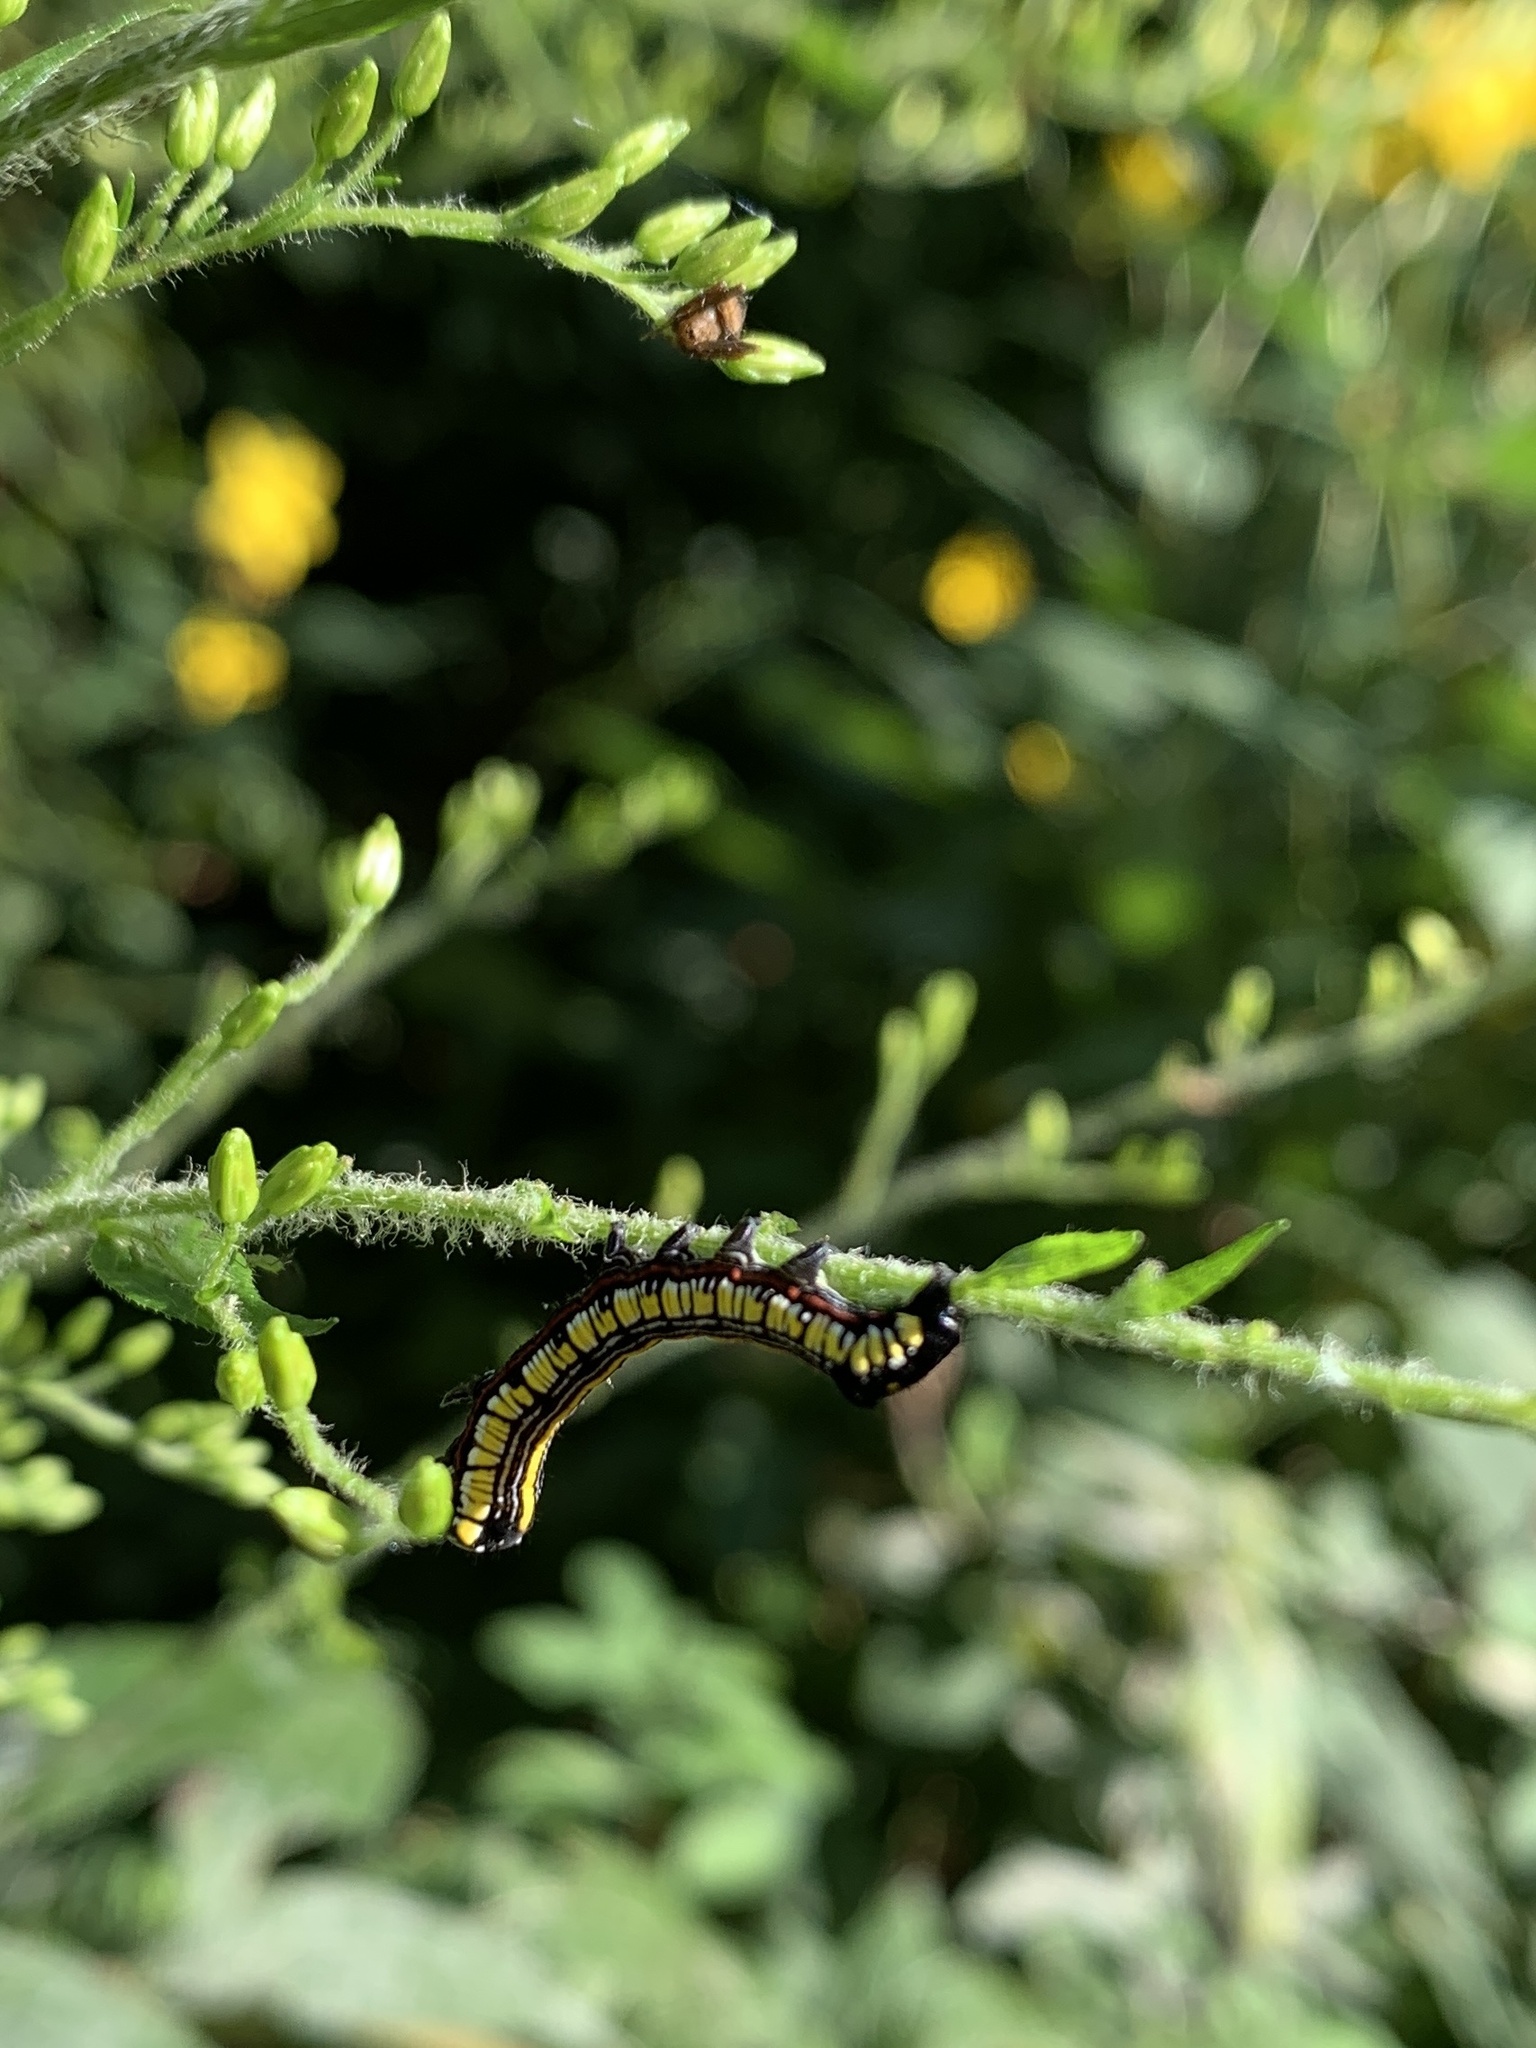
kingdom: Animalia
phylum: Arthropoda
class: Insecta
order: Lepidoptera
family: Noctuidae
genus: Cucullia
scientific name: Cucullia convexipennis
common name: Brown-hooded owlet
